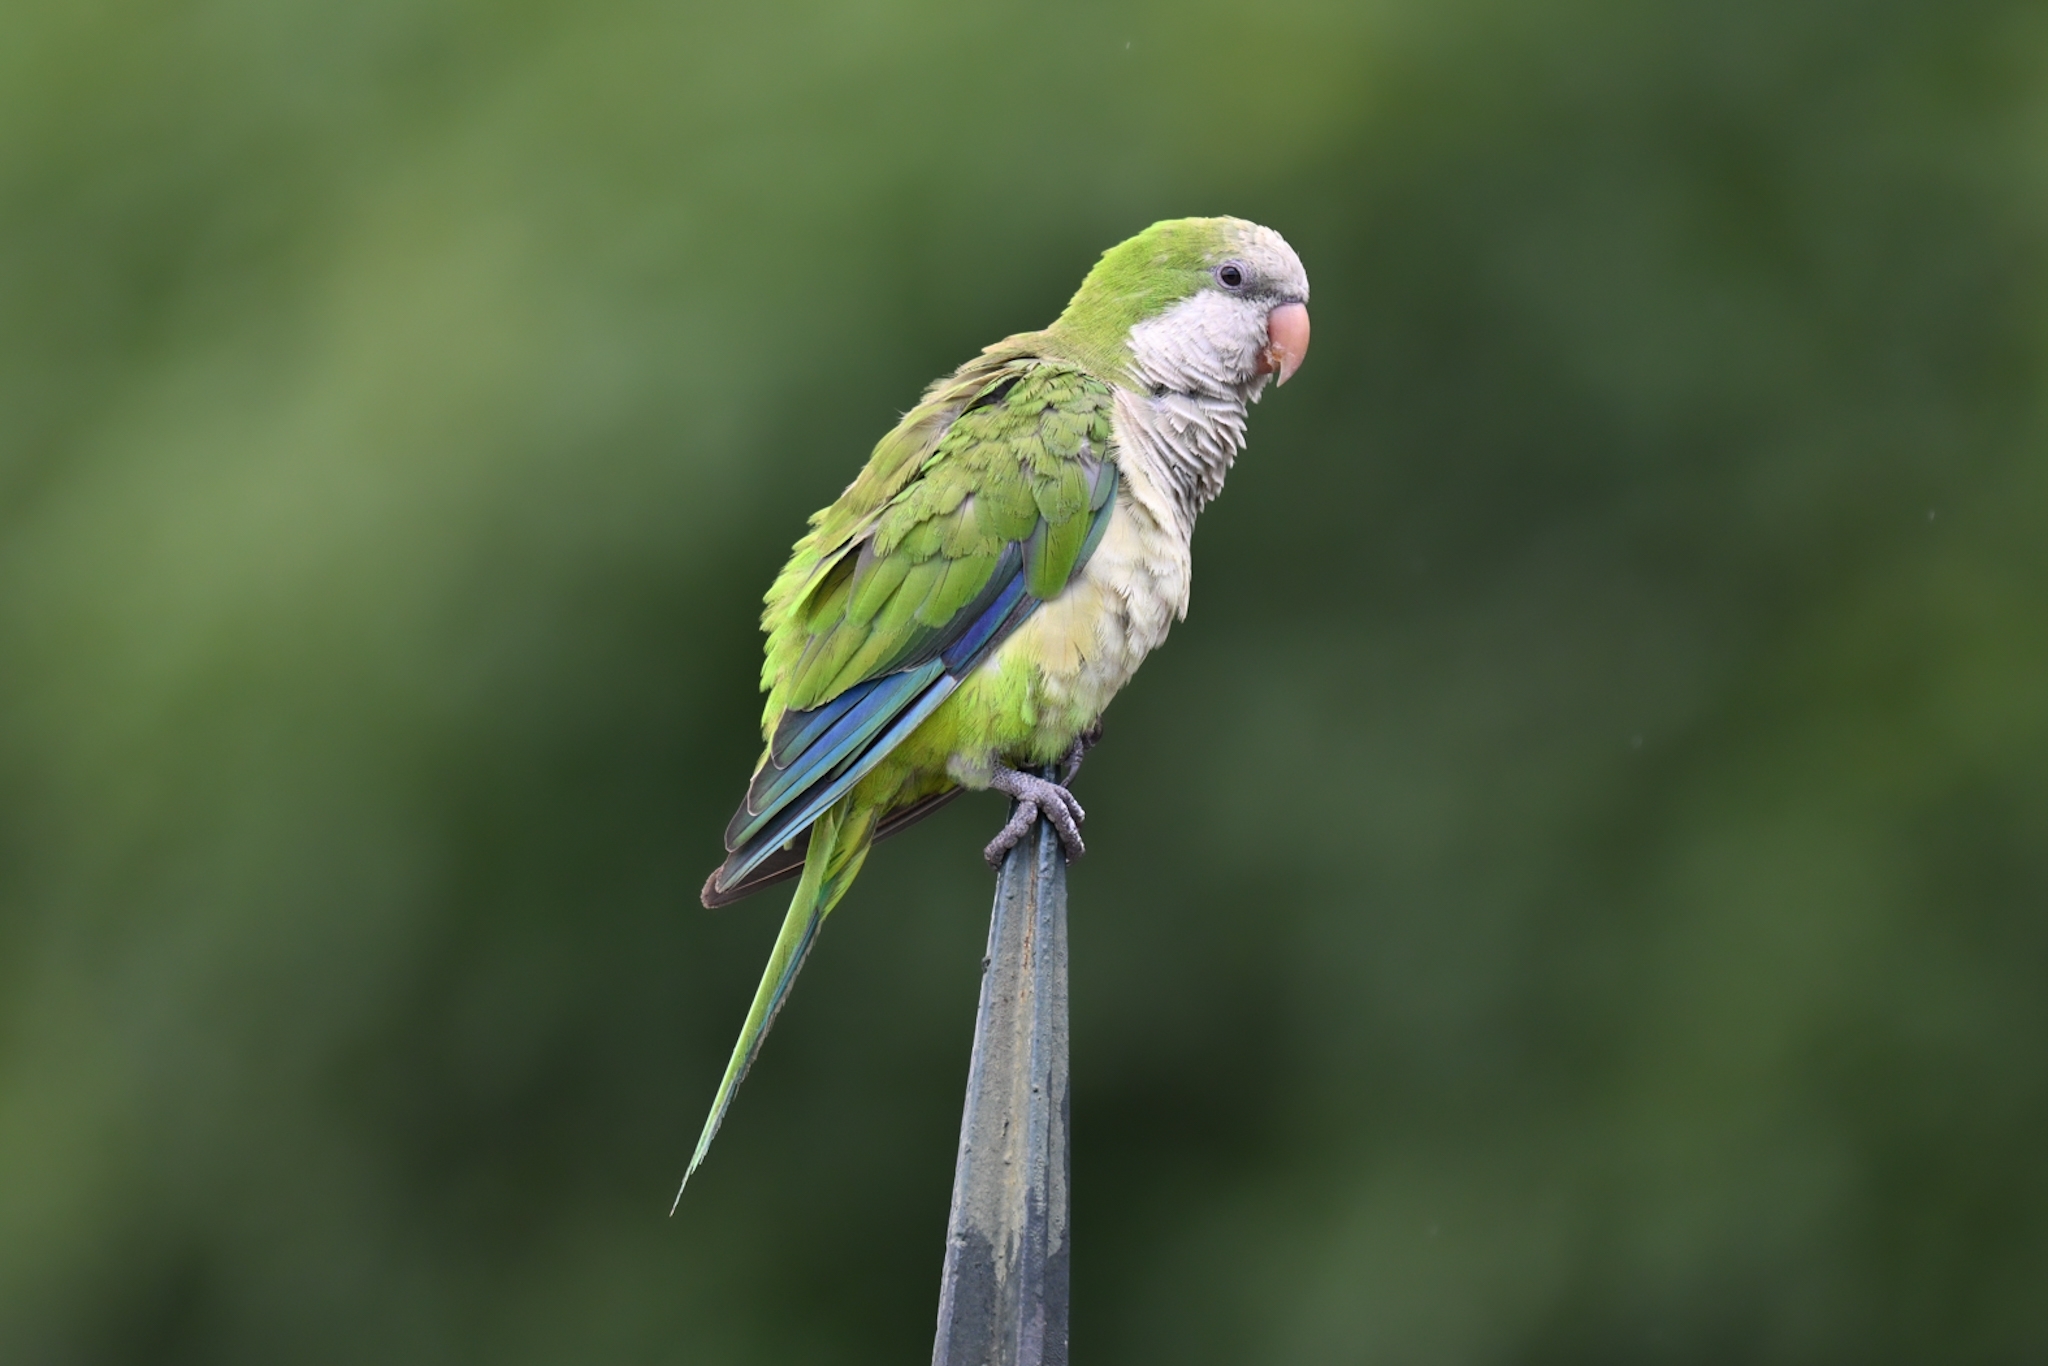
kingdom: Animalia
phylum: Chordata
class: Aves
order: Psittaciformes
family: Psittacidae
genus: Myiopsitta
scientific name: Myiopsitta monachus
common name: Monk parakeet
